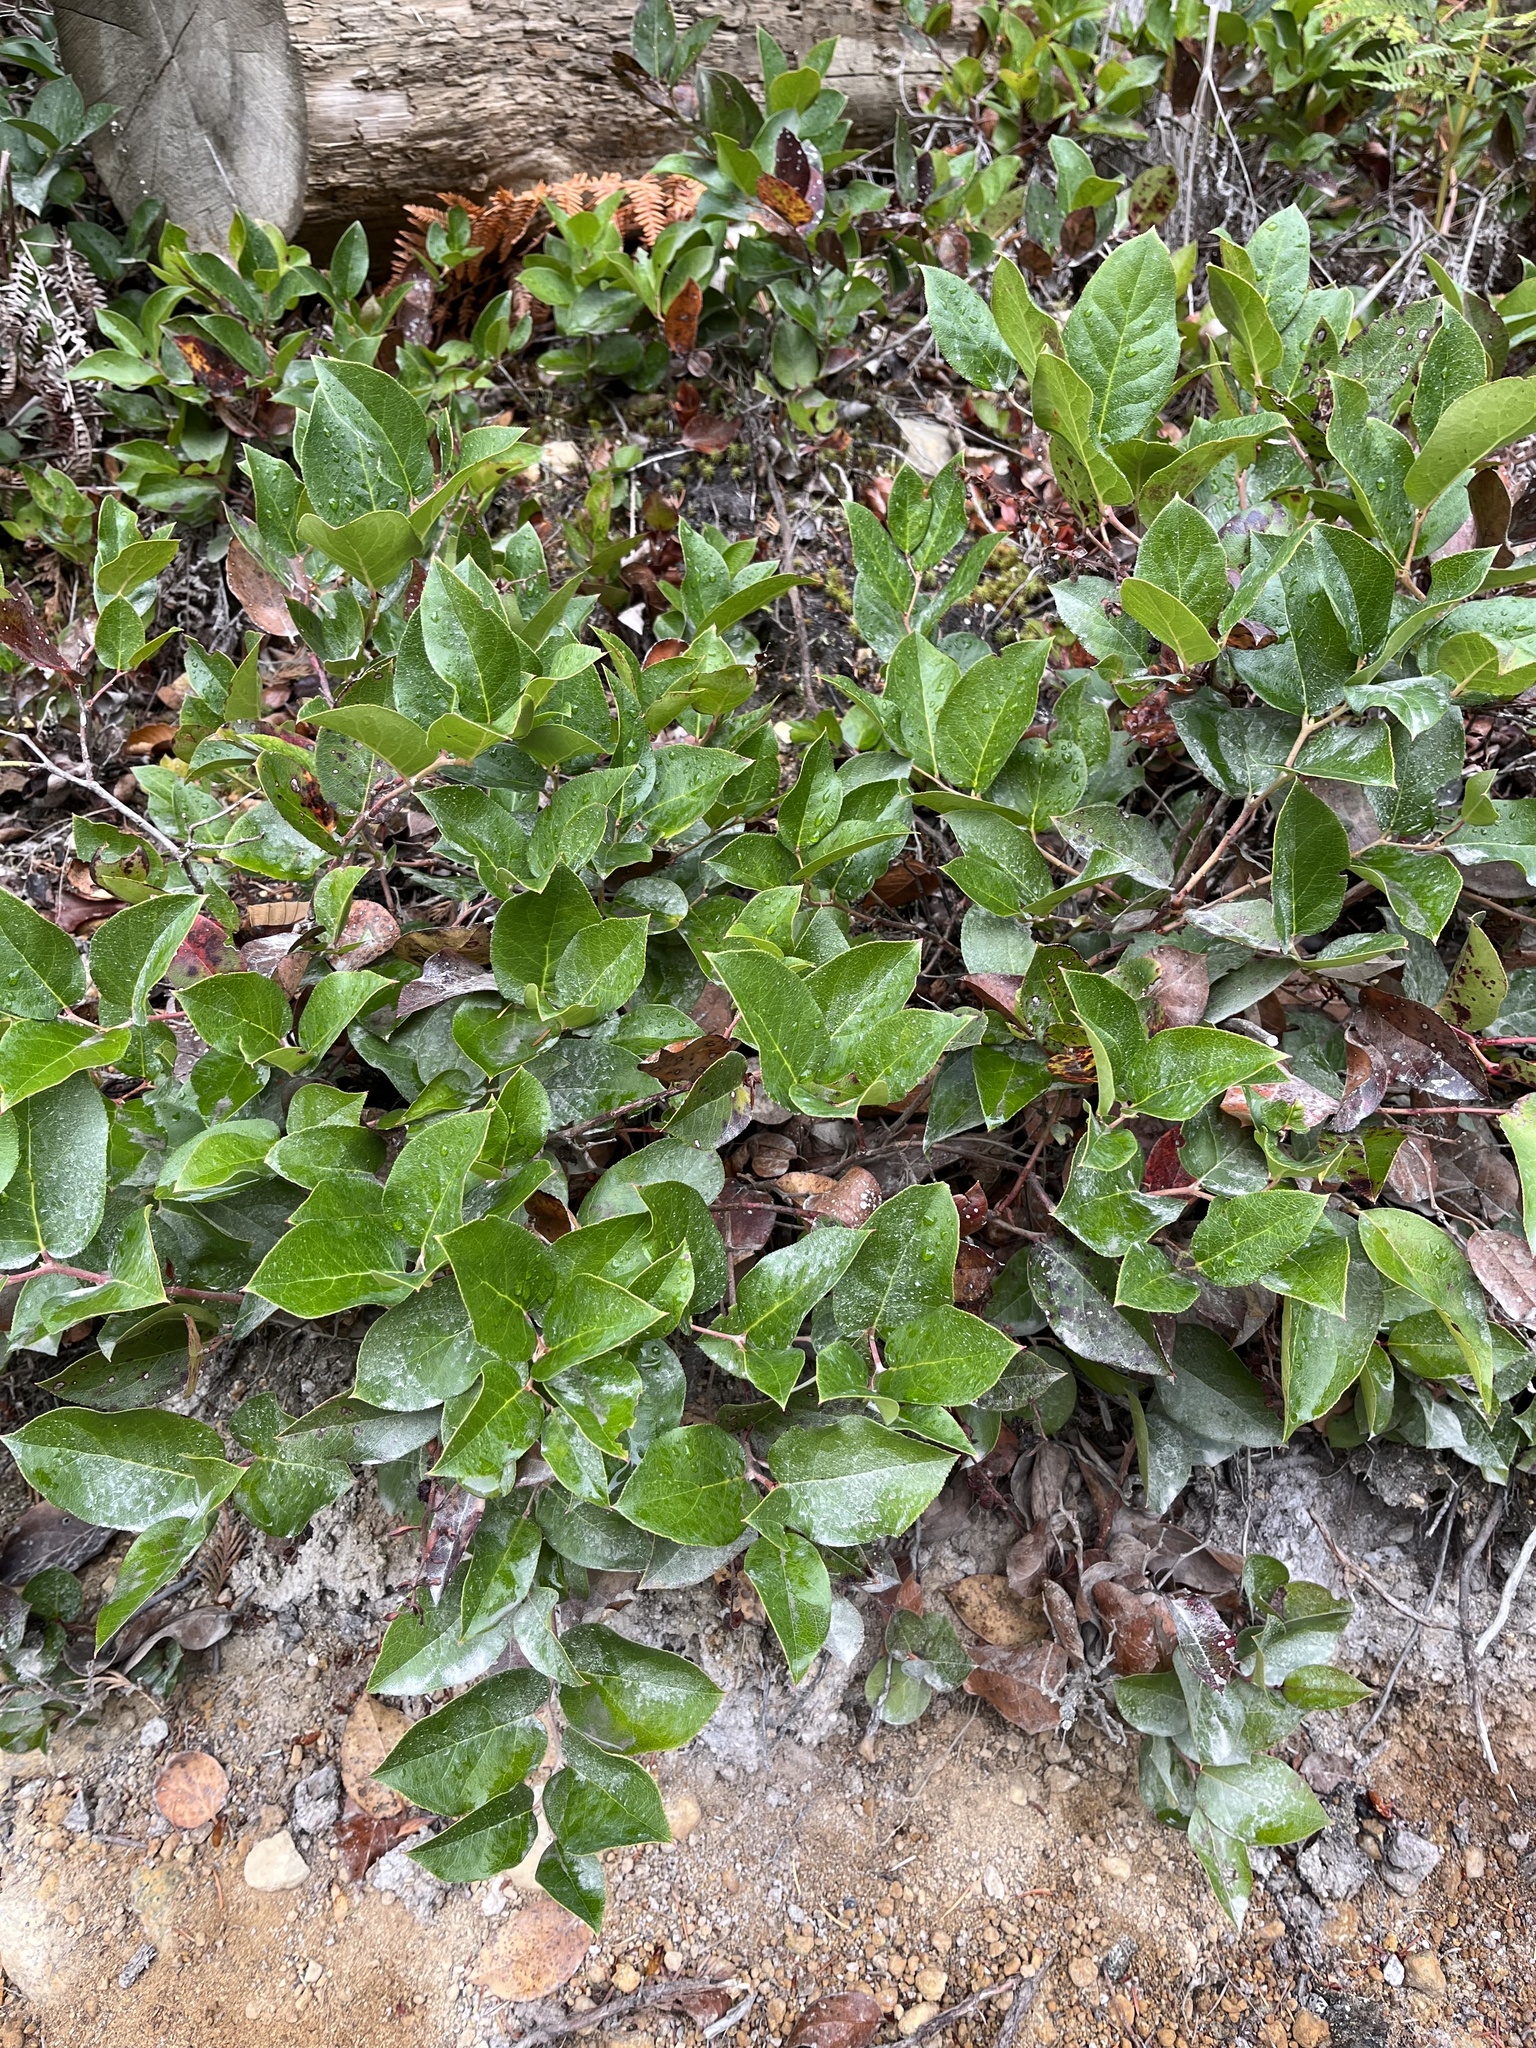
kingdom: Plantae
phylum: Tracheophyta
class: Magnoliopsida
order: Ericales
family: Ericaceae
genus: Gaultheria
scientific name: Gaultheria shallon
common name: Shallon
